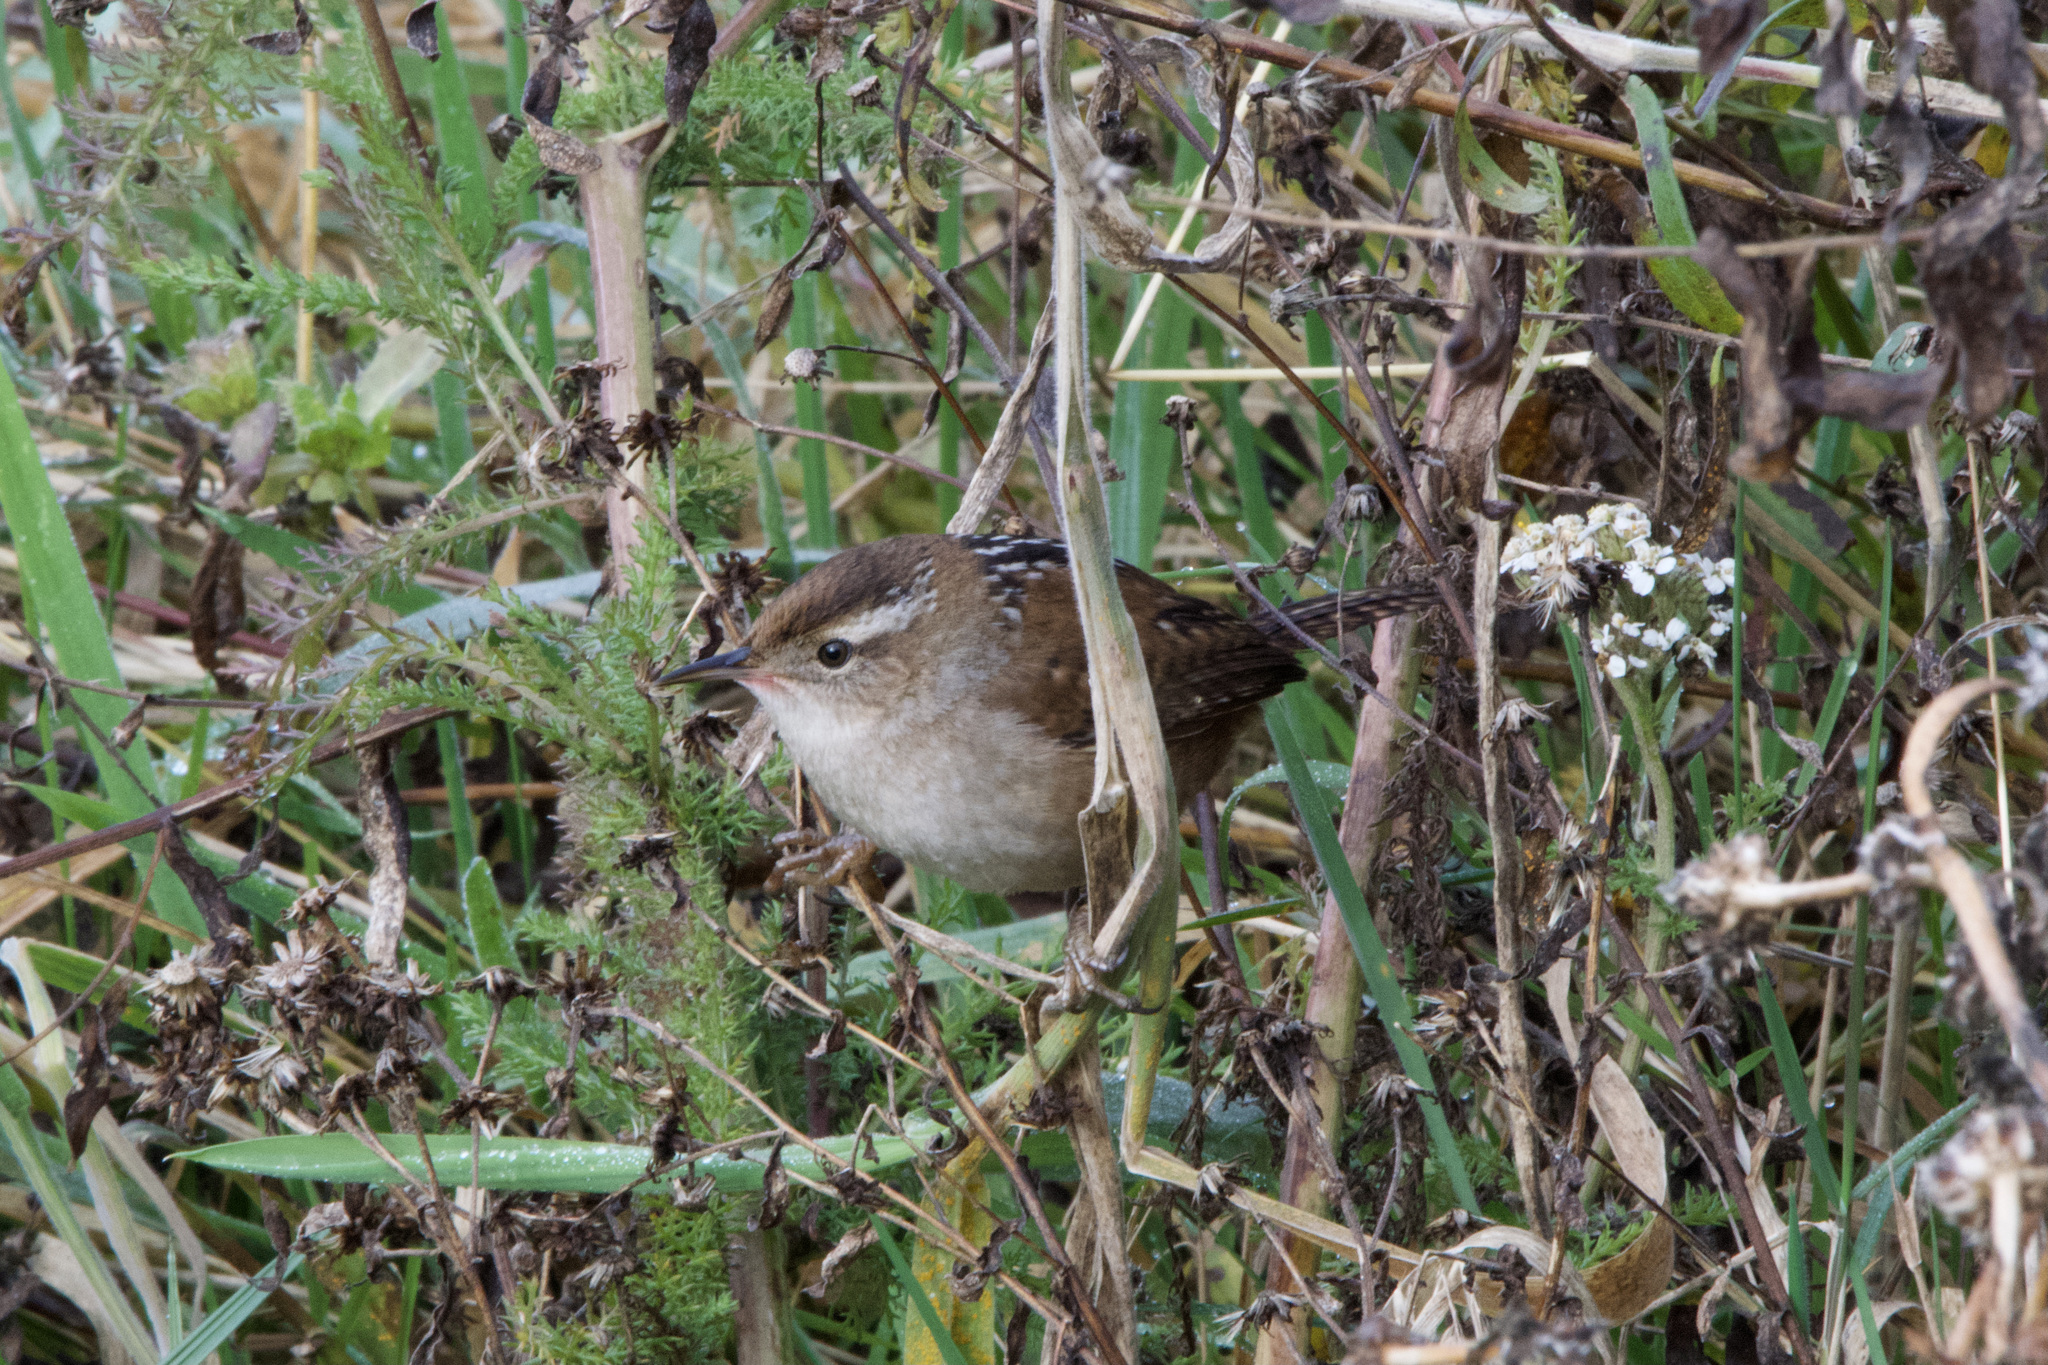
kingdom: Animalia
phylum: Chordata
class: Aves
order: Passeriformes
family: Troglodytidae
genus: Cistothorus
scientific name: Cistothorus palustris
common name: Marsh wren
